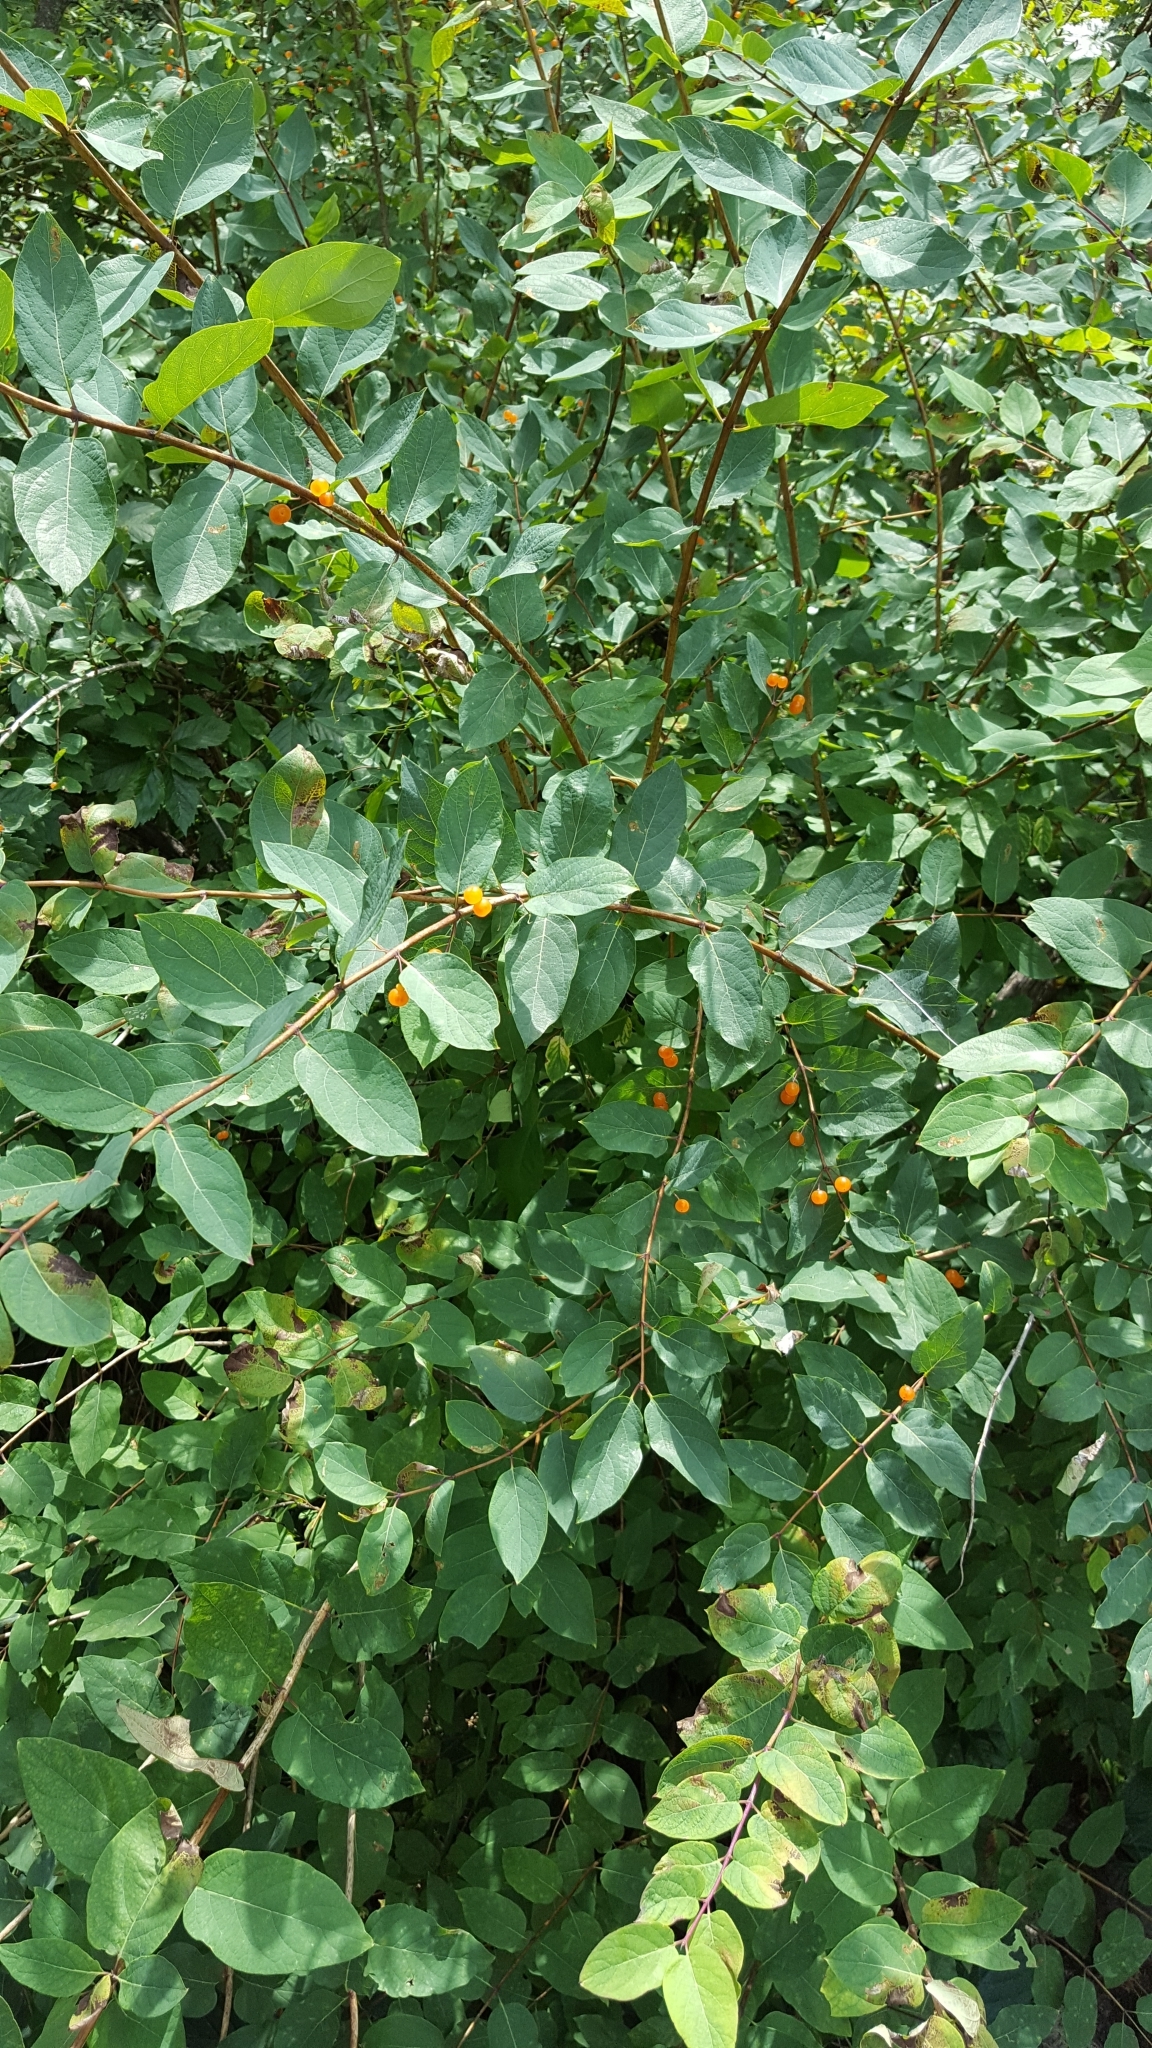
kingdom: Plantae
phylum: Tracheophyta
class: Magnoliopsida
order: Dipsacales
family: Caprifoliaceae
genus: Lonicera
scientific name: Lonicera tatarica
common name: Tatarian honeysuckle
